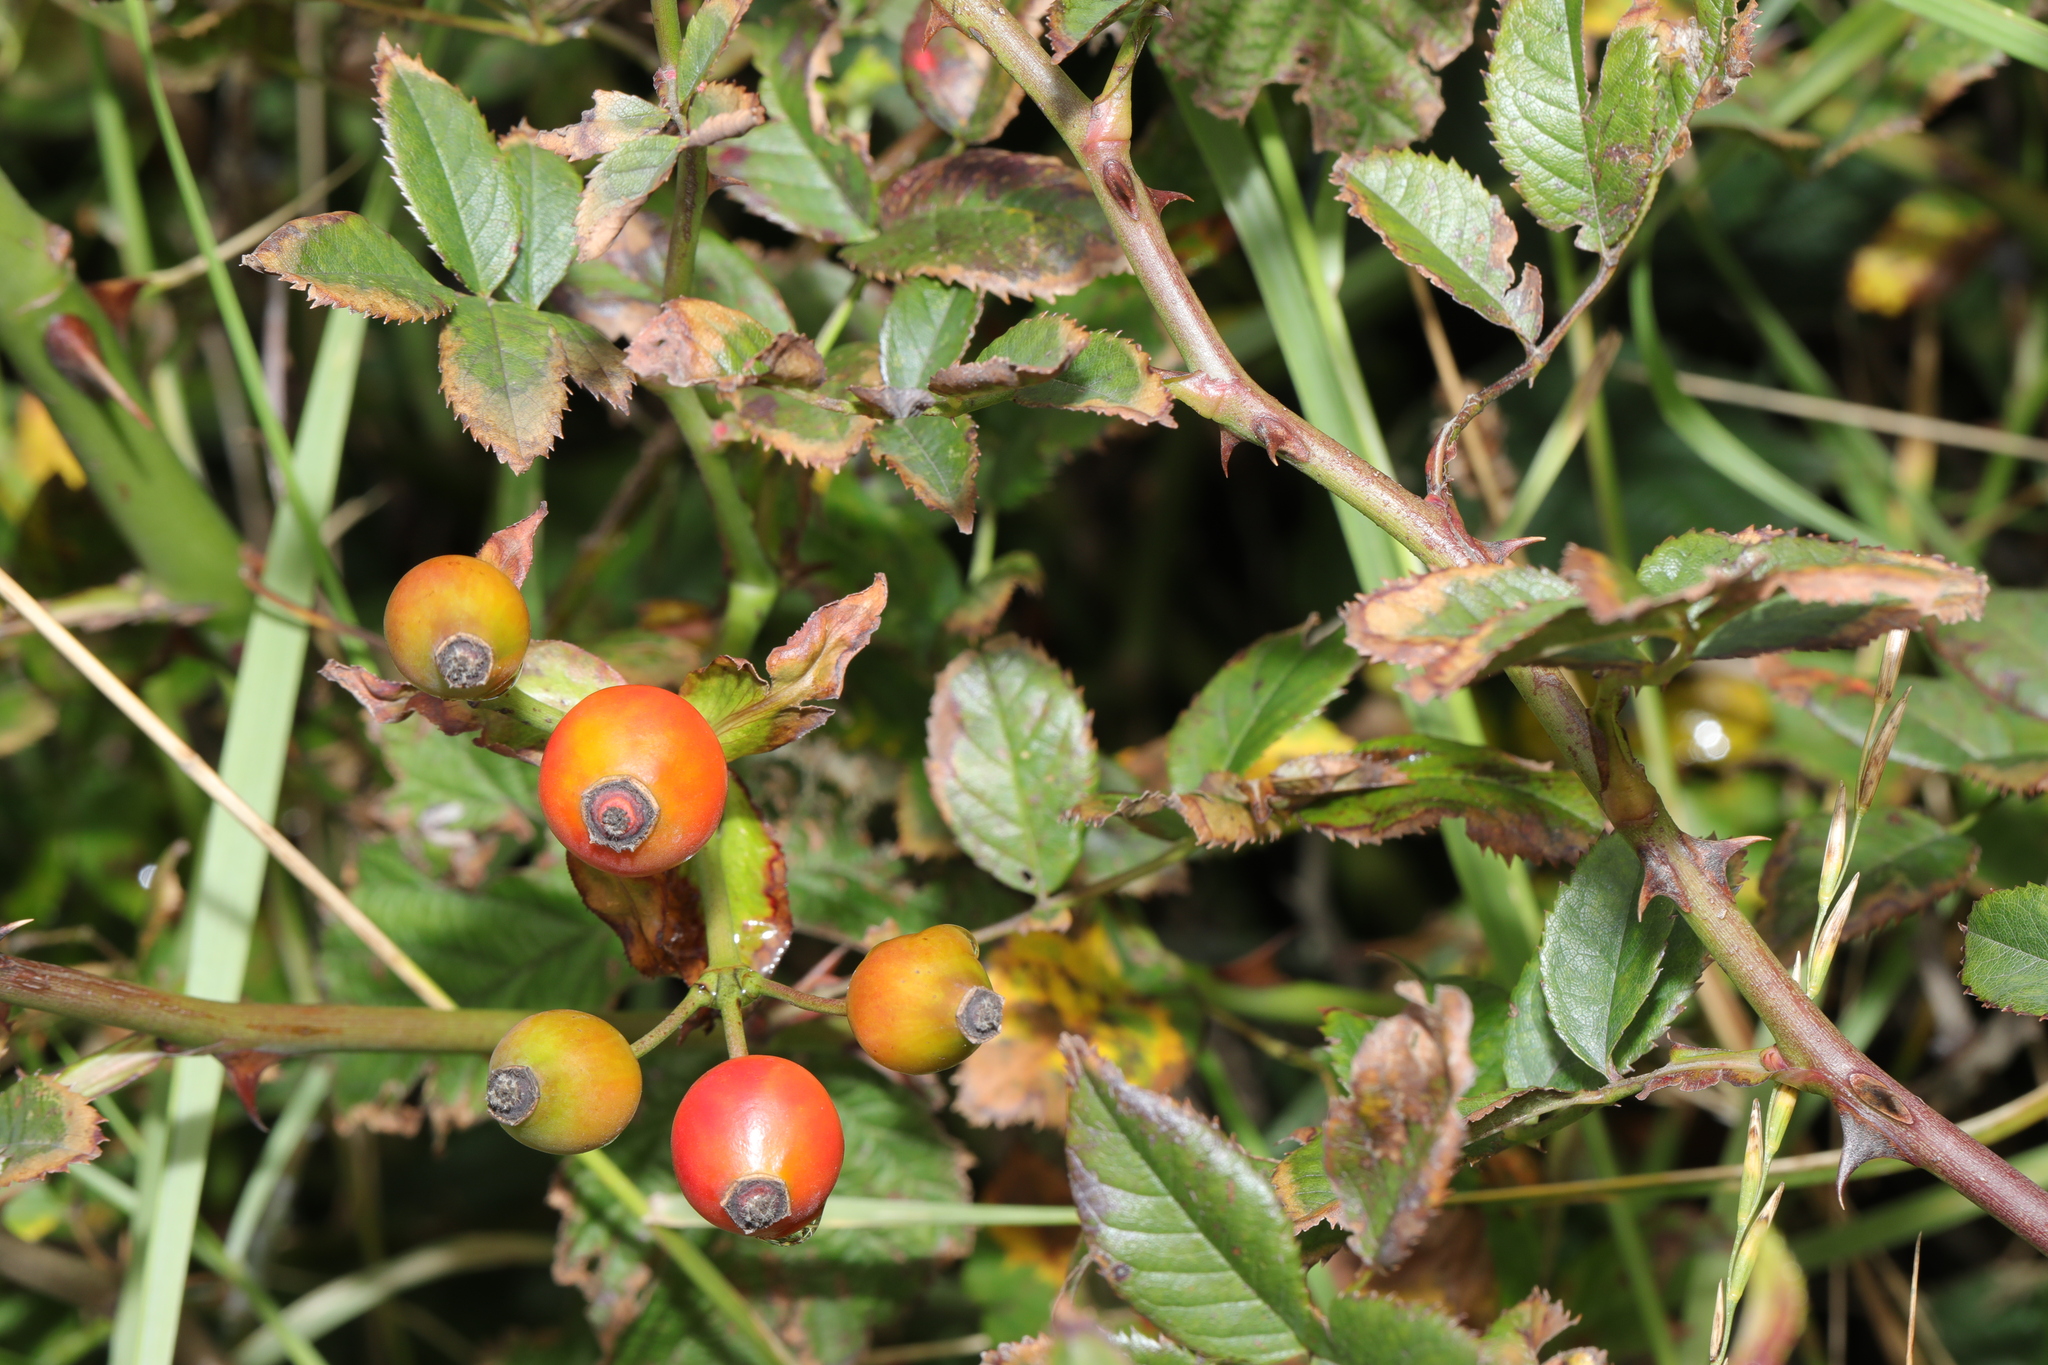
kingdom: Plantae
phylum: Tracheophyta
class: Magnoliopsida
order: Rosales
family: Rosaceae
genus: Rosa
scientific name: Rosa canina
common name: Dog rose
